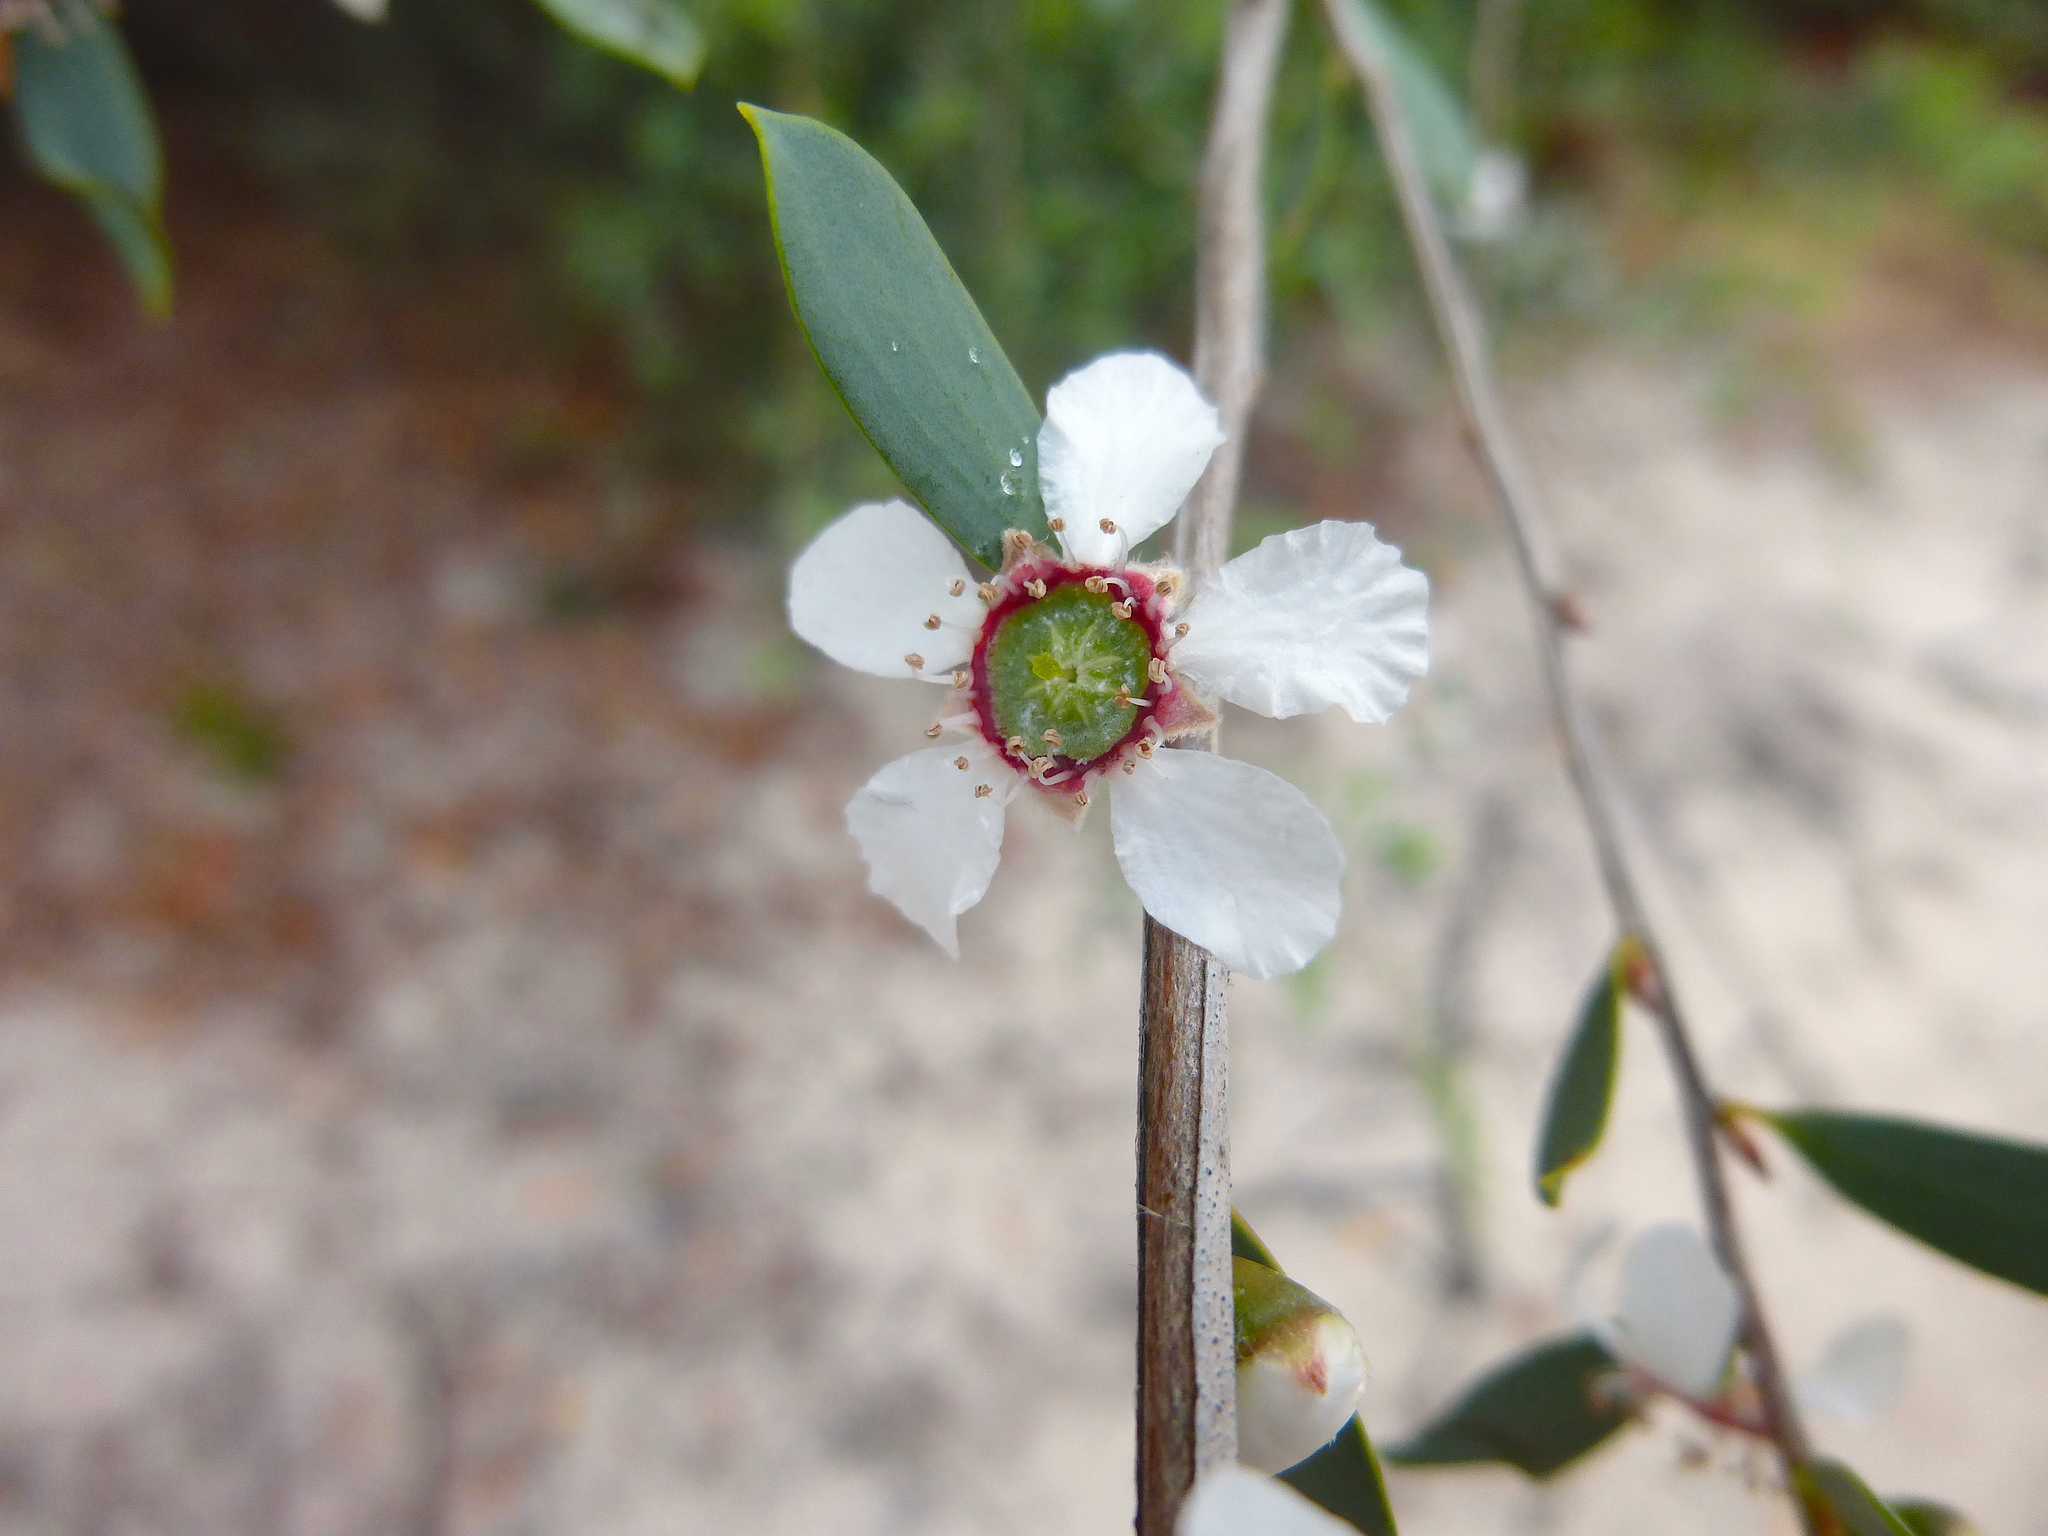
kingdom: Plantae
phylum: Tracheophyta
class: Magnoliopsida
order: Myrtales
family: Myrtaceae
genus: Leptospermum
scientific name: Leptospermum laevigatum
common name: Australian teatree
